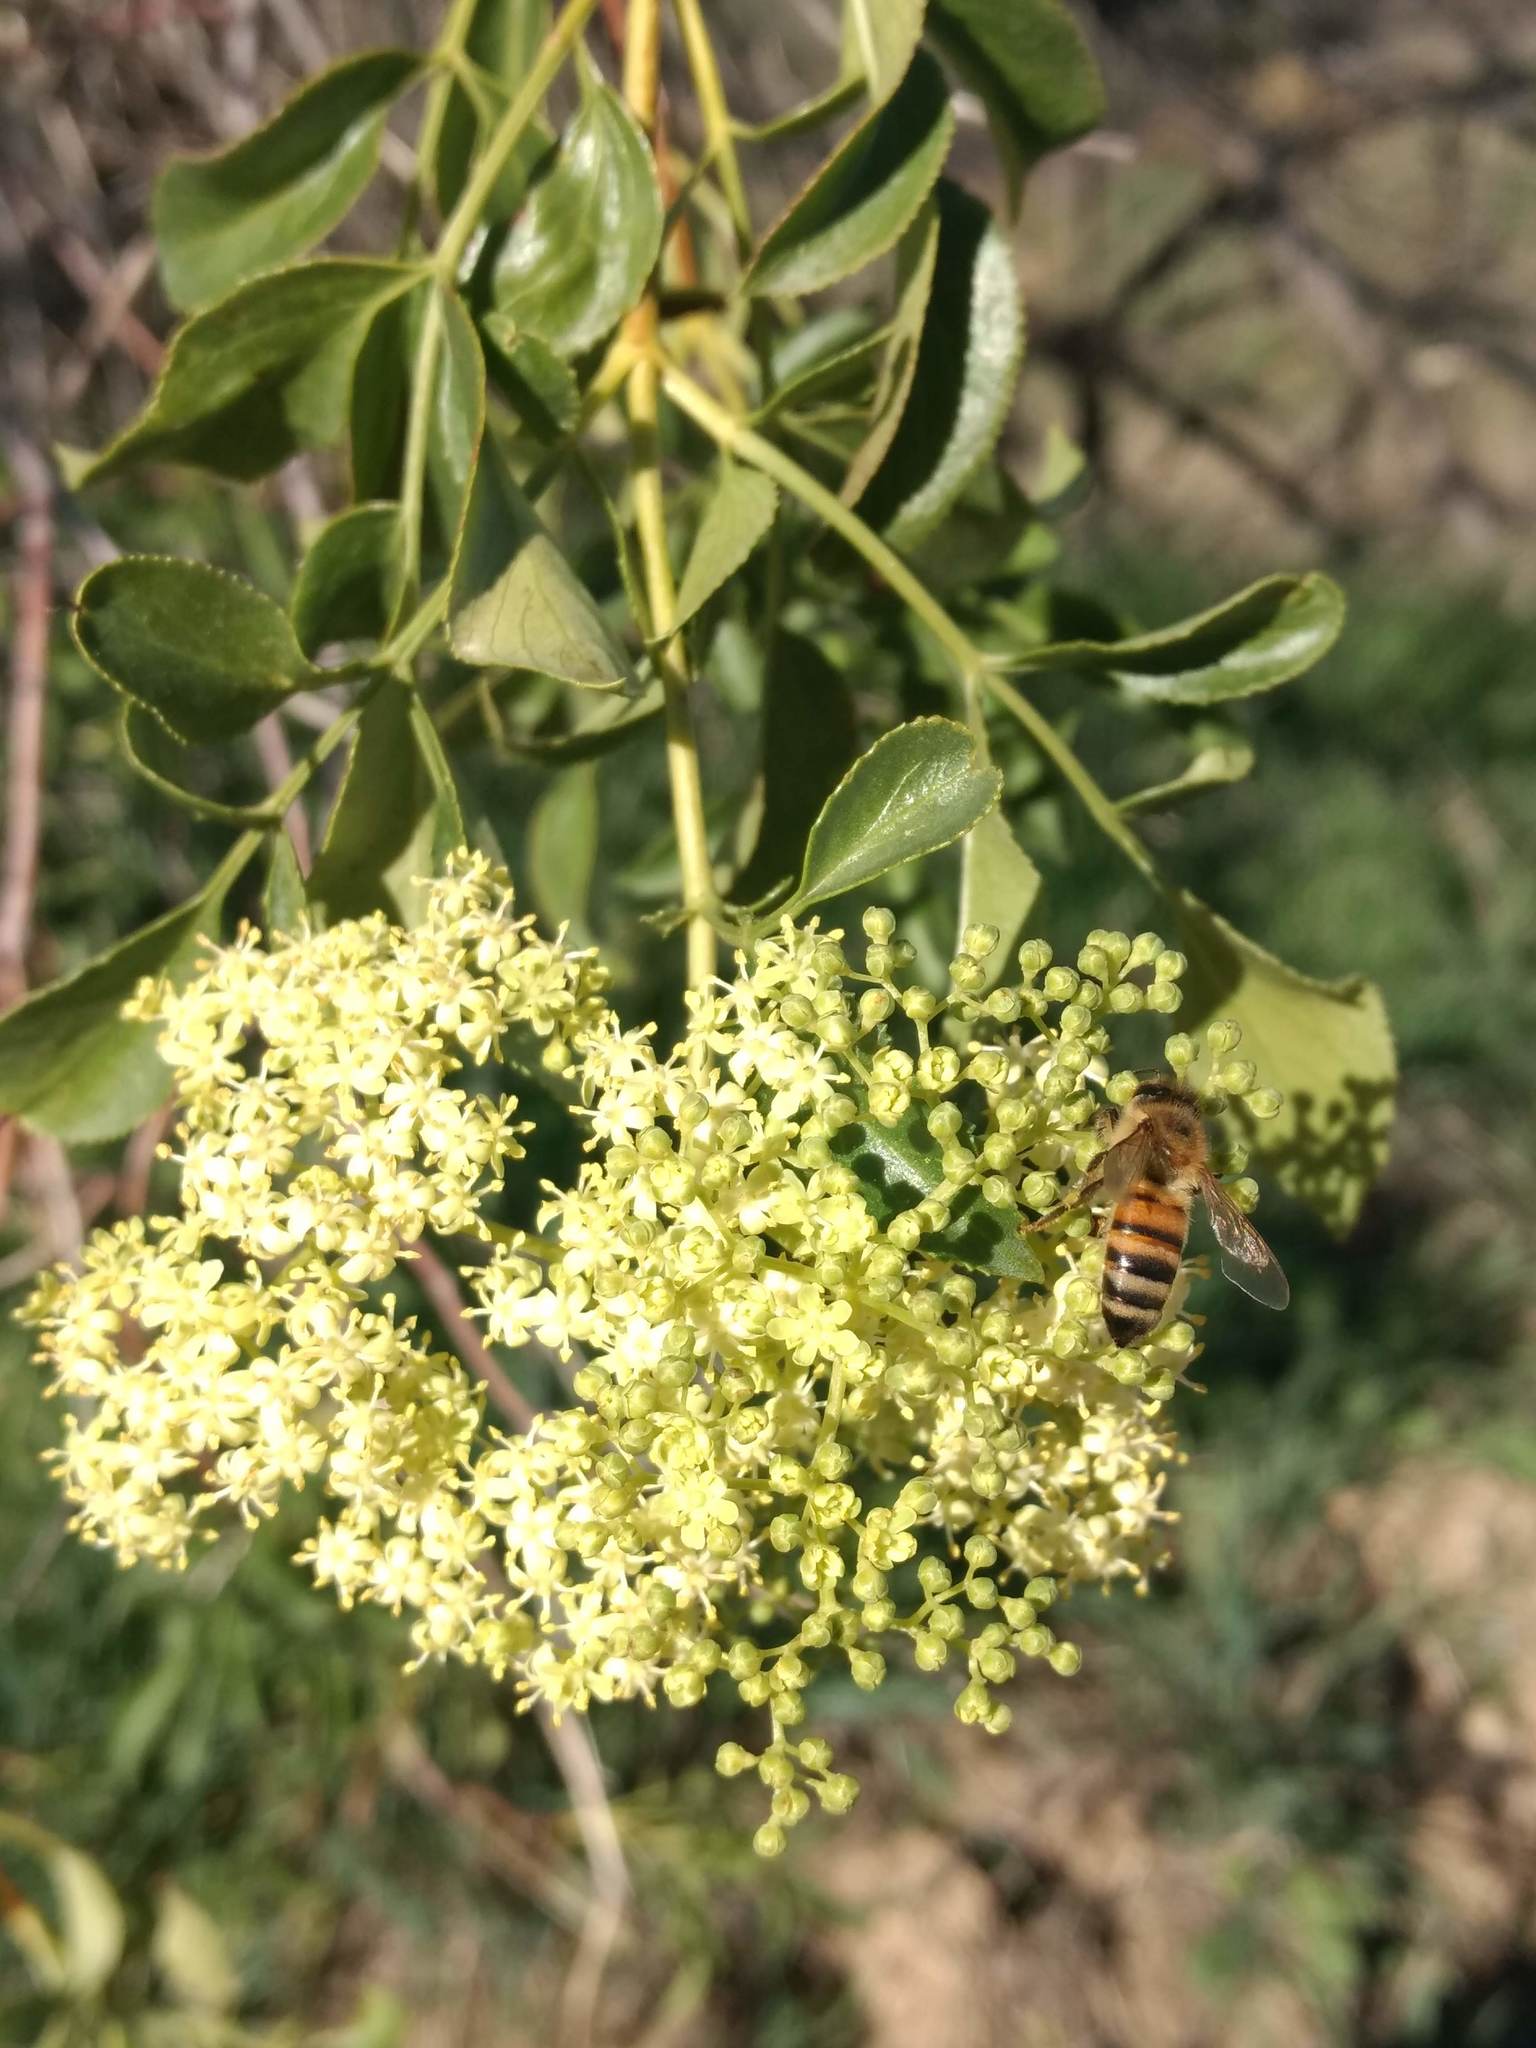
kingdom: Animalia
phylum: Arthropoda
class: Insecta
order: Hymenoptera
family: Apidae
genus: Apis
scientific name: Apis mellifera
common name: Honey bee
